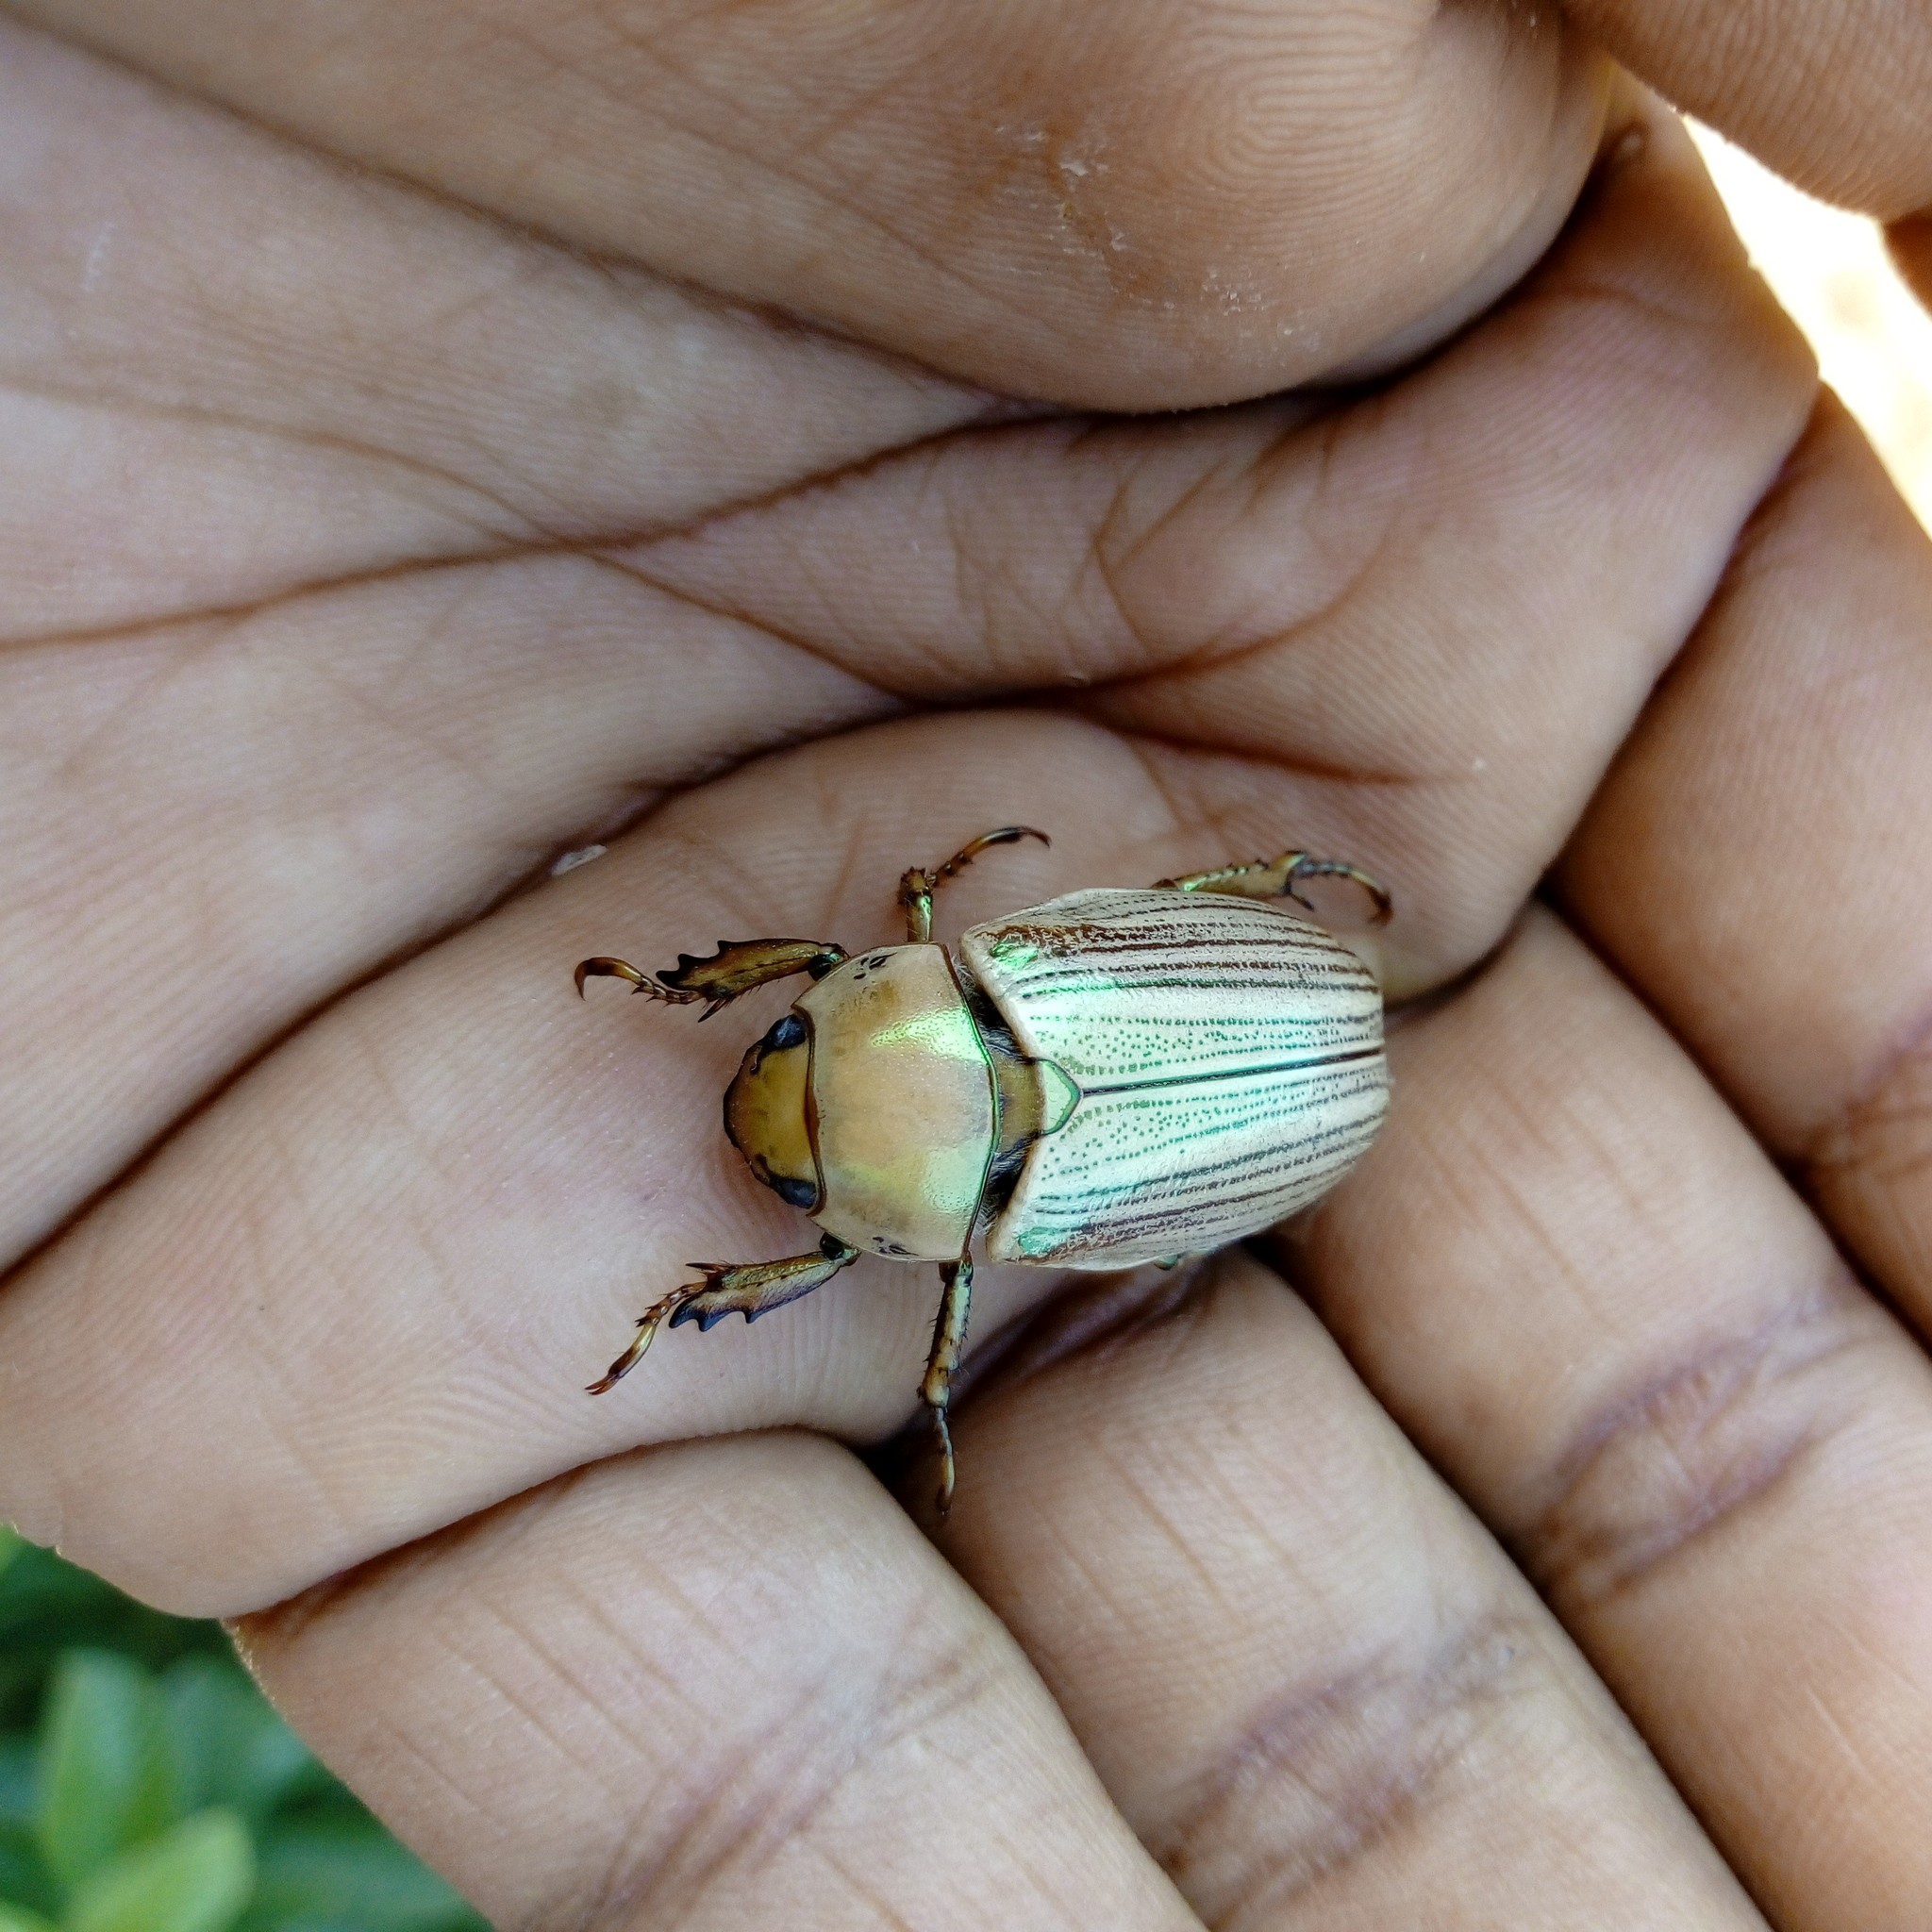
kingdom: Animalia
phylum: Arthropoda
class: Insecta
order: Coleoptera
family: Scarabaeidae
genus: Pelidnota
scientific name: Pelidnota virescens
